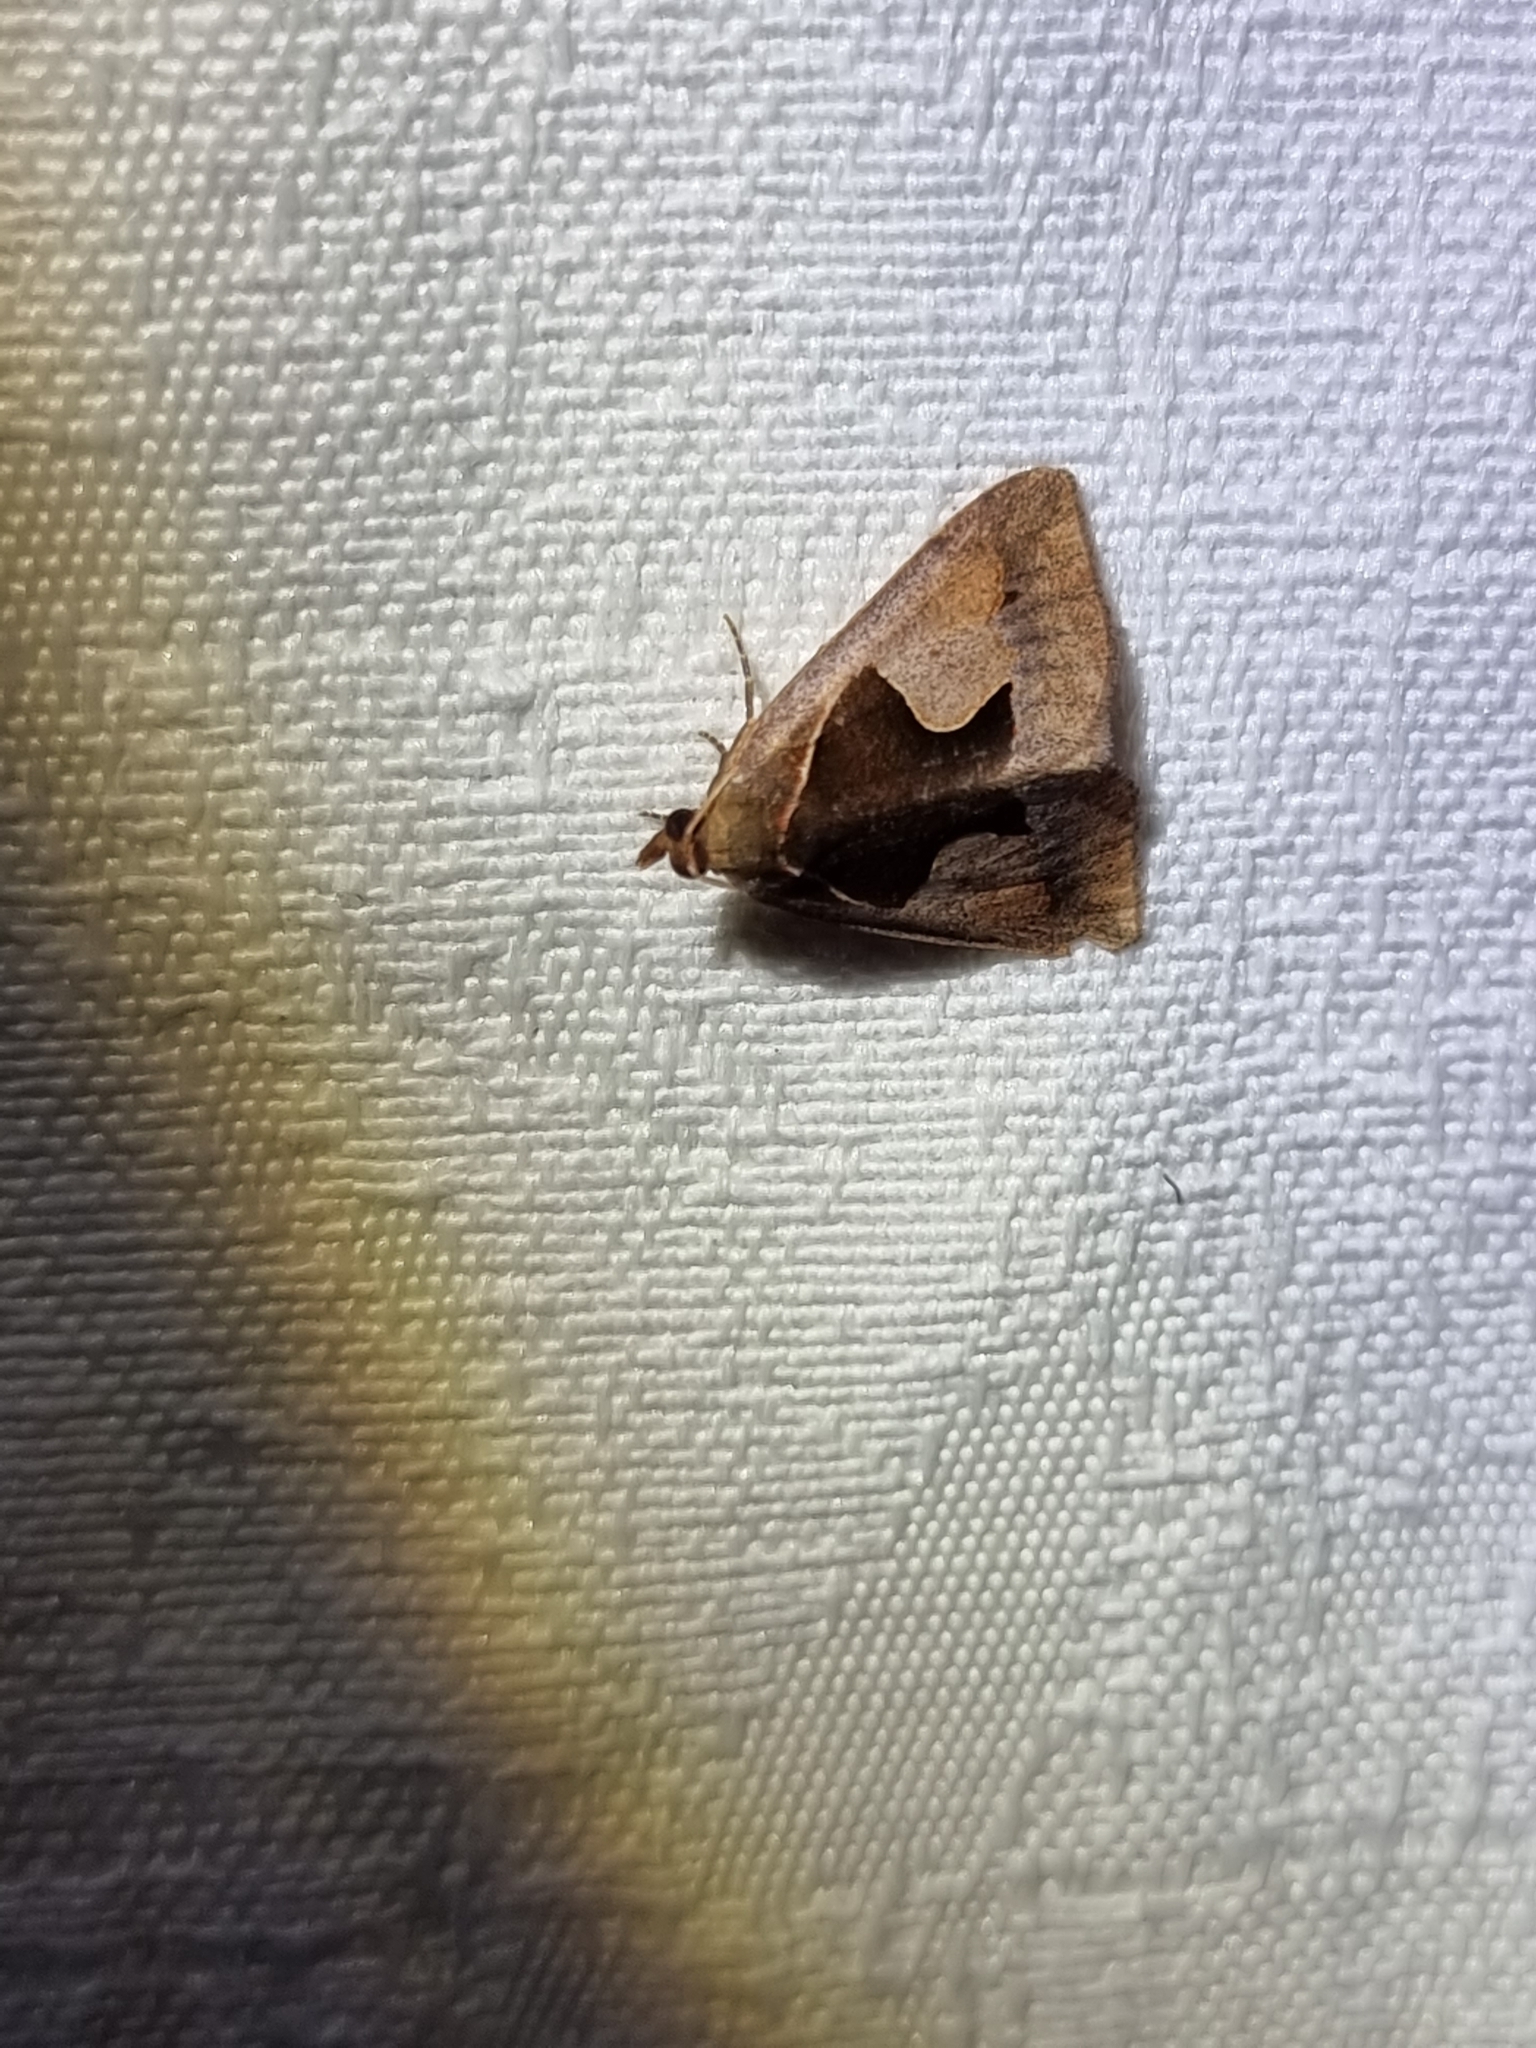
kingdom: Animalia
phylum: Arthropoda
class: Insecta
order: Lepidoptera
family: Erebidae
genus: Agamana
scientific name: Agamana cavatalis
